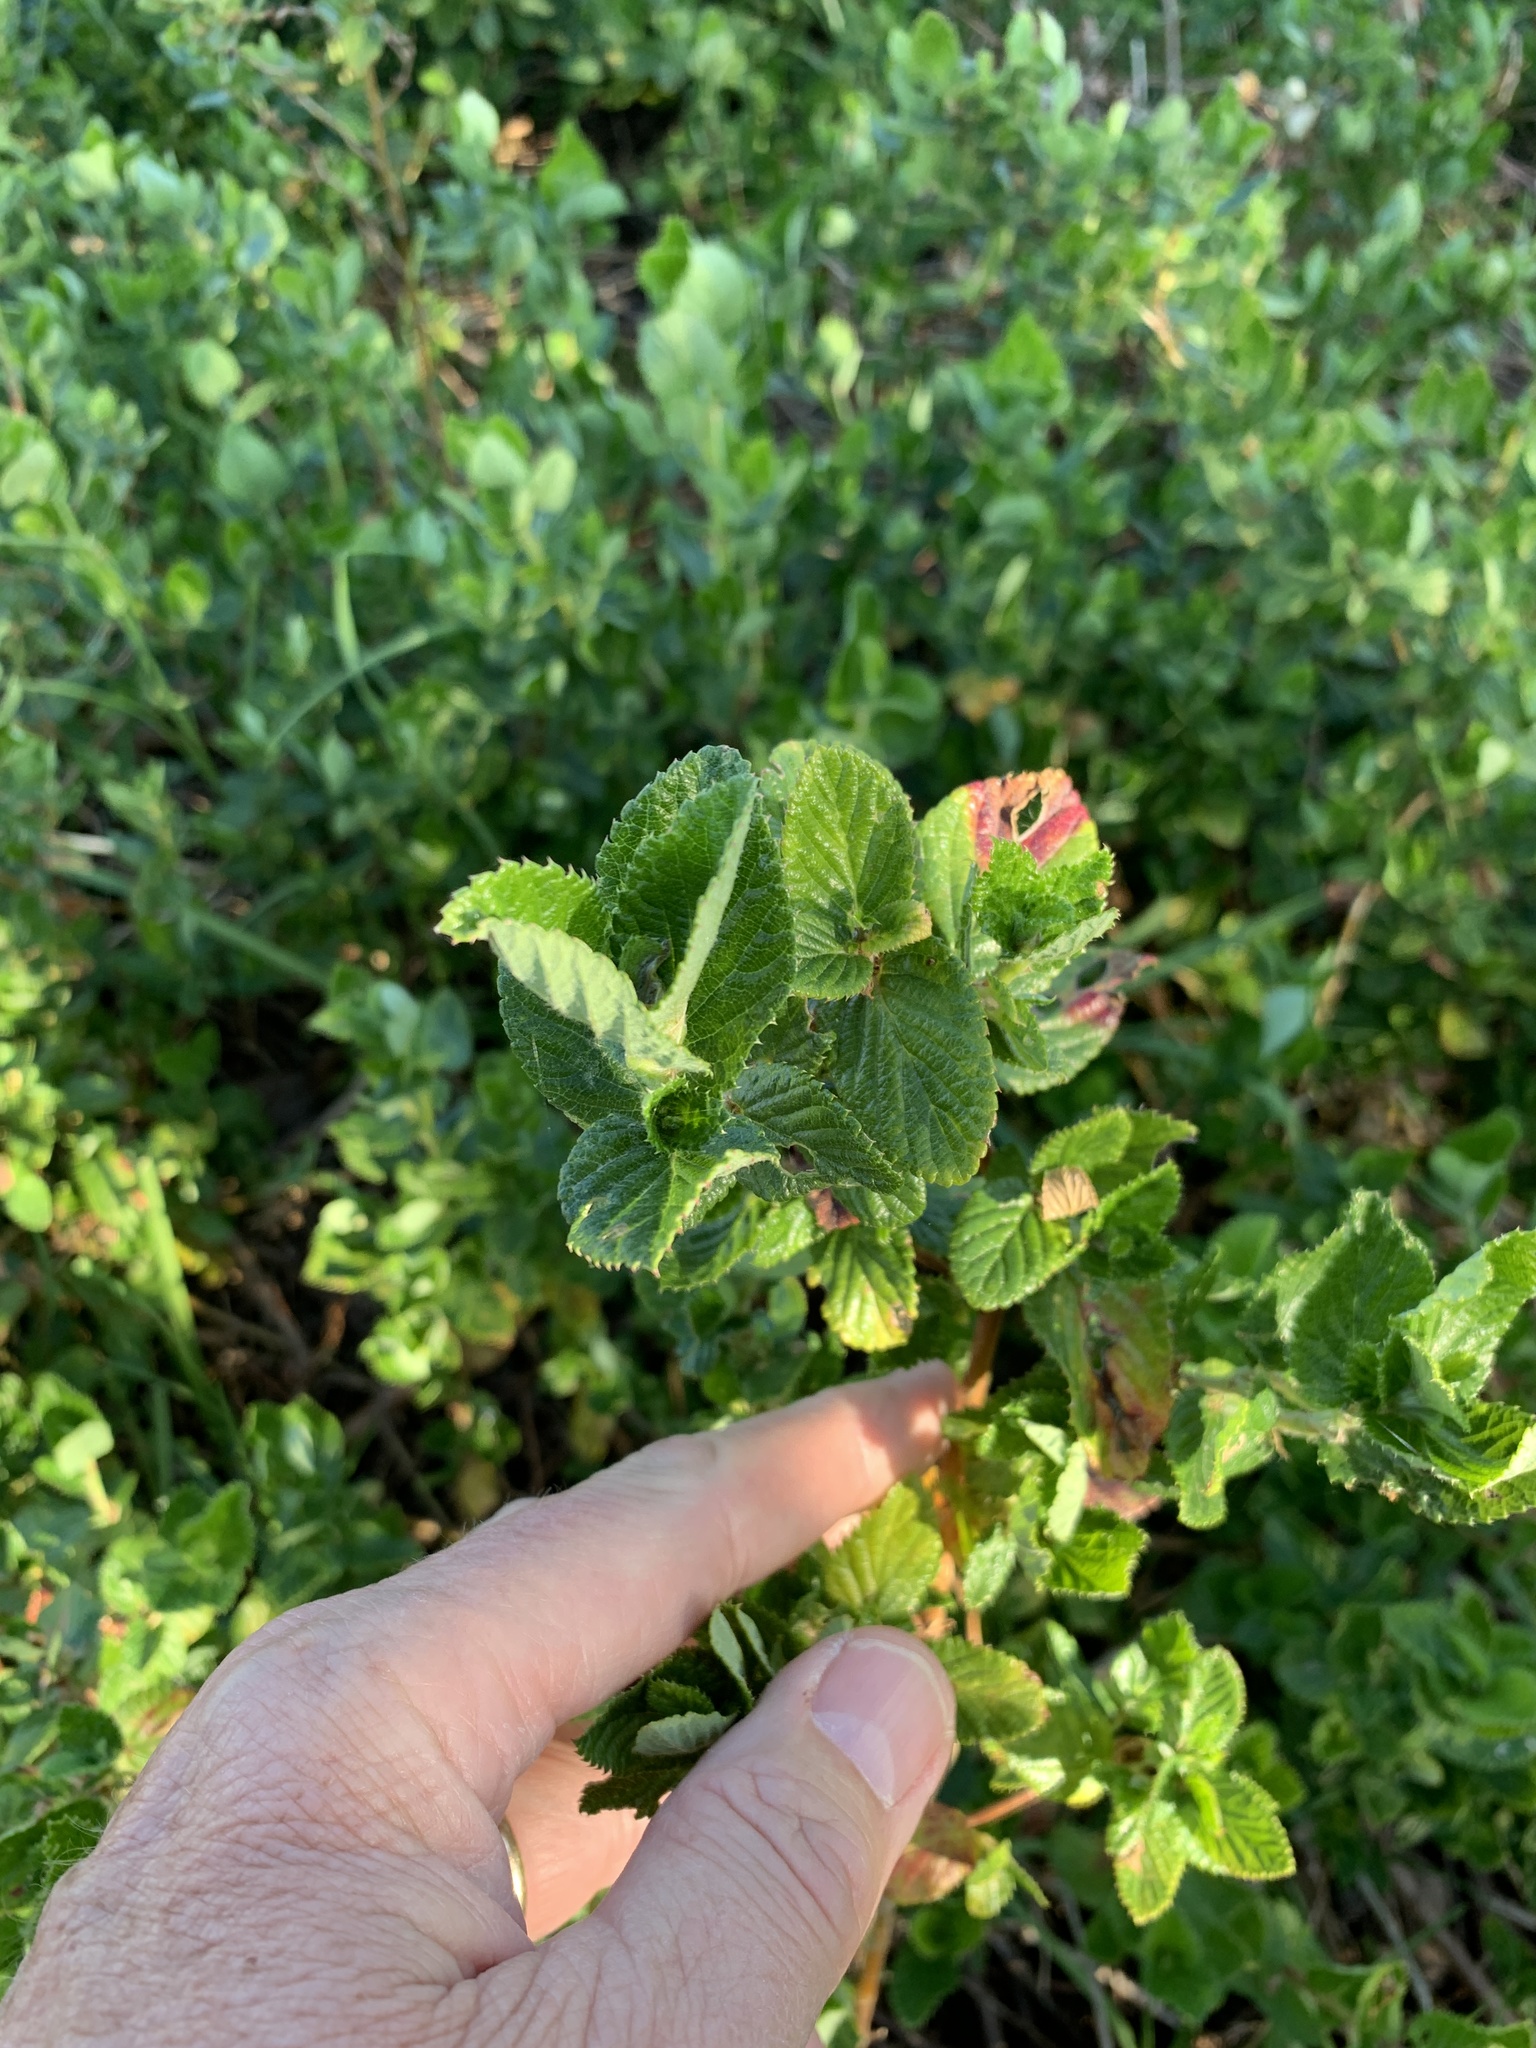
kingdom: Plantae
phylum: Tracheophyta
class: Magnoliopsida
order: Rosales
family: Rosaceae
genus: Cliffortia
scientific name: Cliffortia odorata
